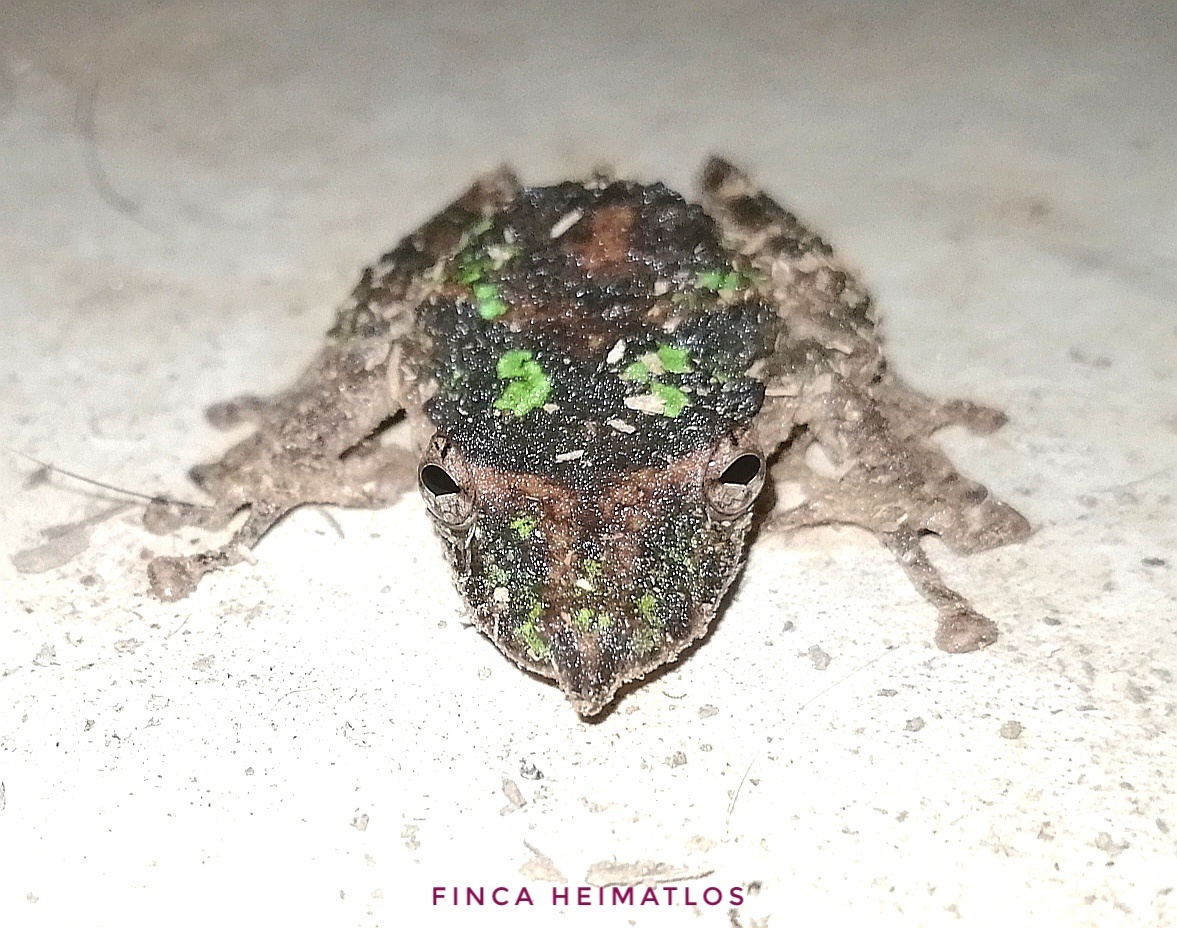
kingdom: Animalia
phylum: Chordata
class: Amphibia
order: Anura
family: Hylidae
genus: Scinax
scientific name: Scinax garbei
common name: Eirunepe snouted treefrog
